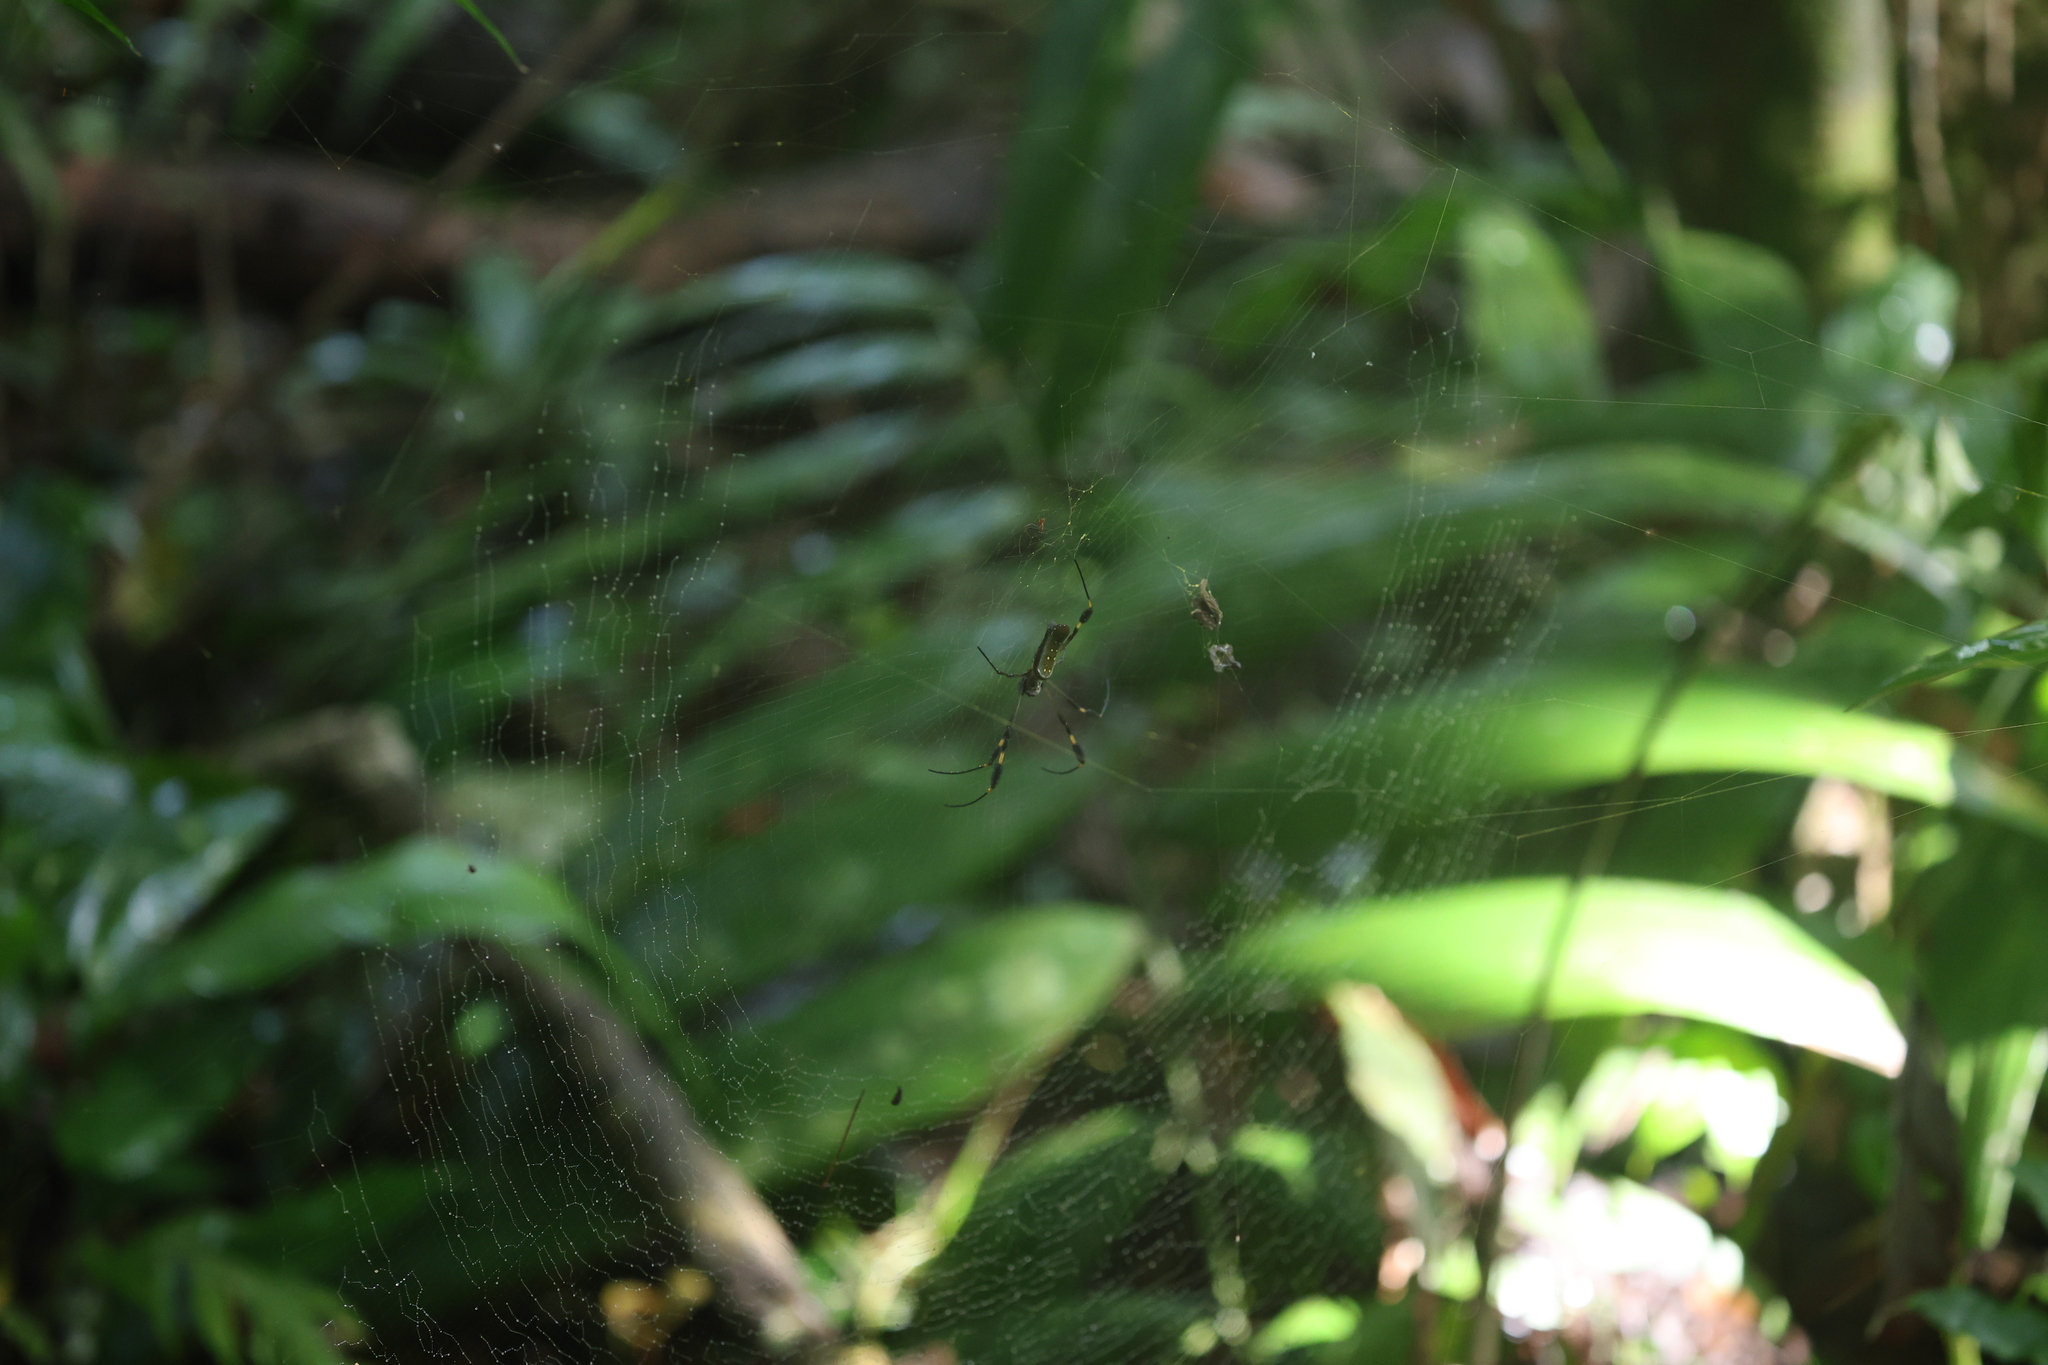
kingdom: Animalia
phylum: Arthropoda
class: Arachnida
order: Araneae
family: Araneidae
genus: Trichonephila
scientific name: Trichonephila clavipes
